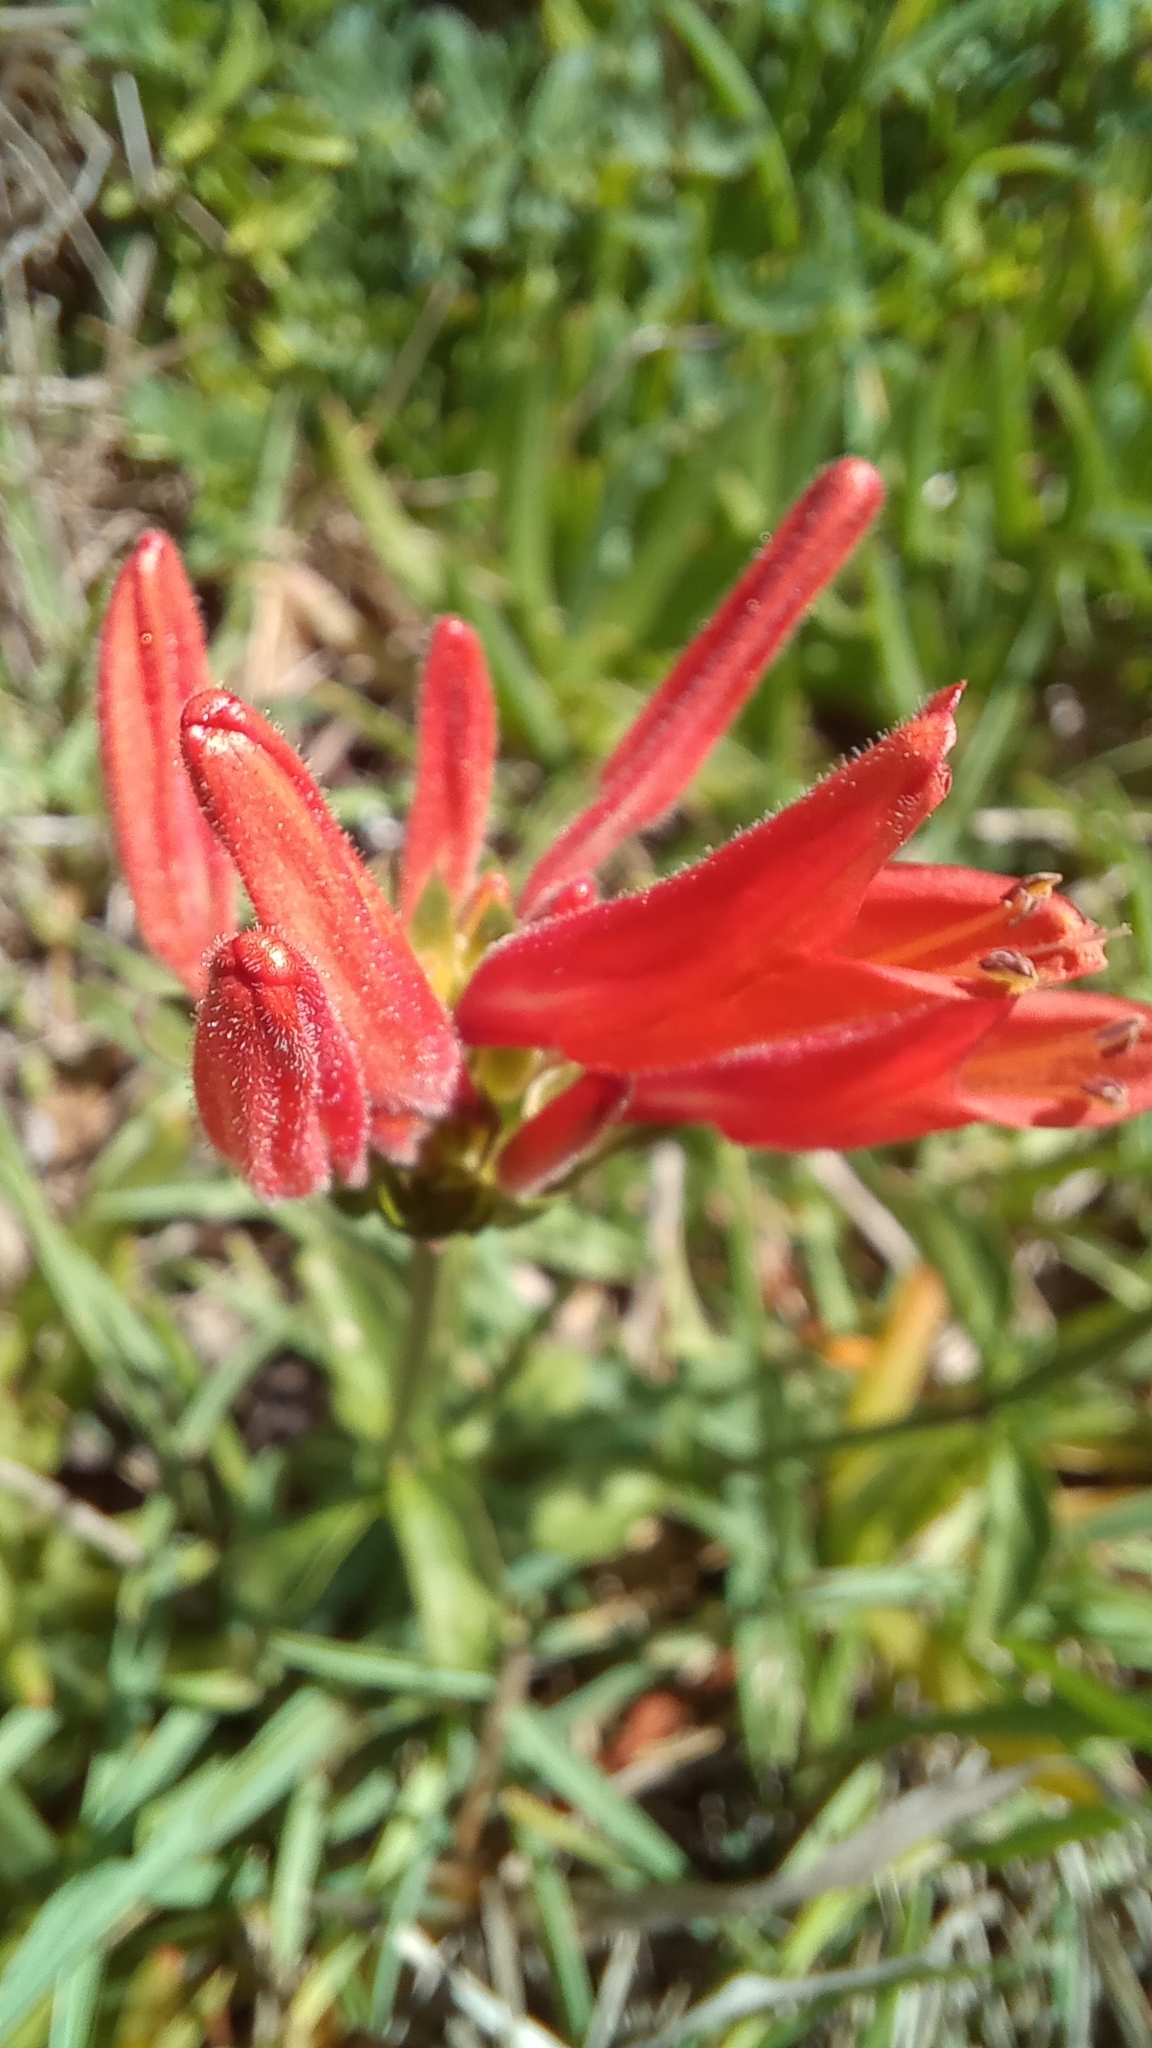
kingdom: Plantae
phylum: Tracheophyta
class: Magnoliopsida
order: Lamiales
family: Acanthaceae
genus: Dicliptera
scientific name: Dicliptera squarrosa
